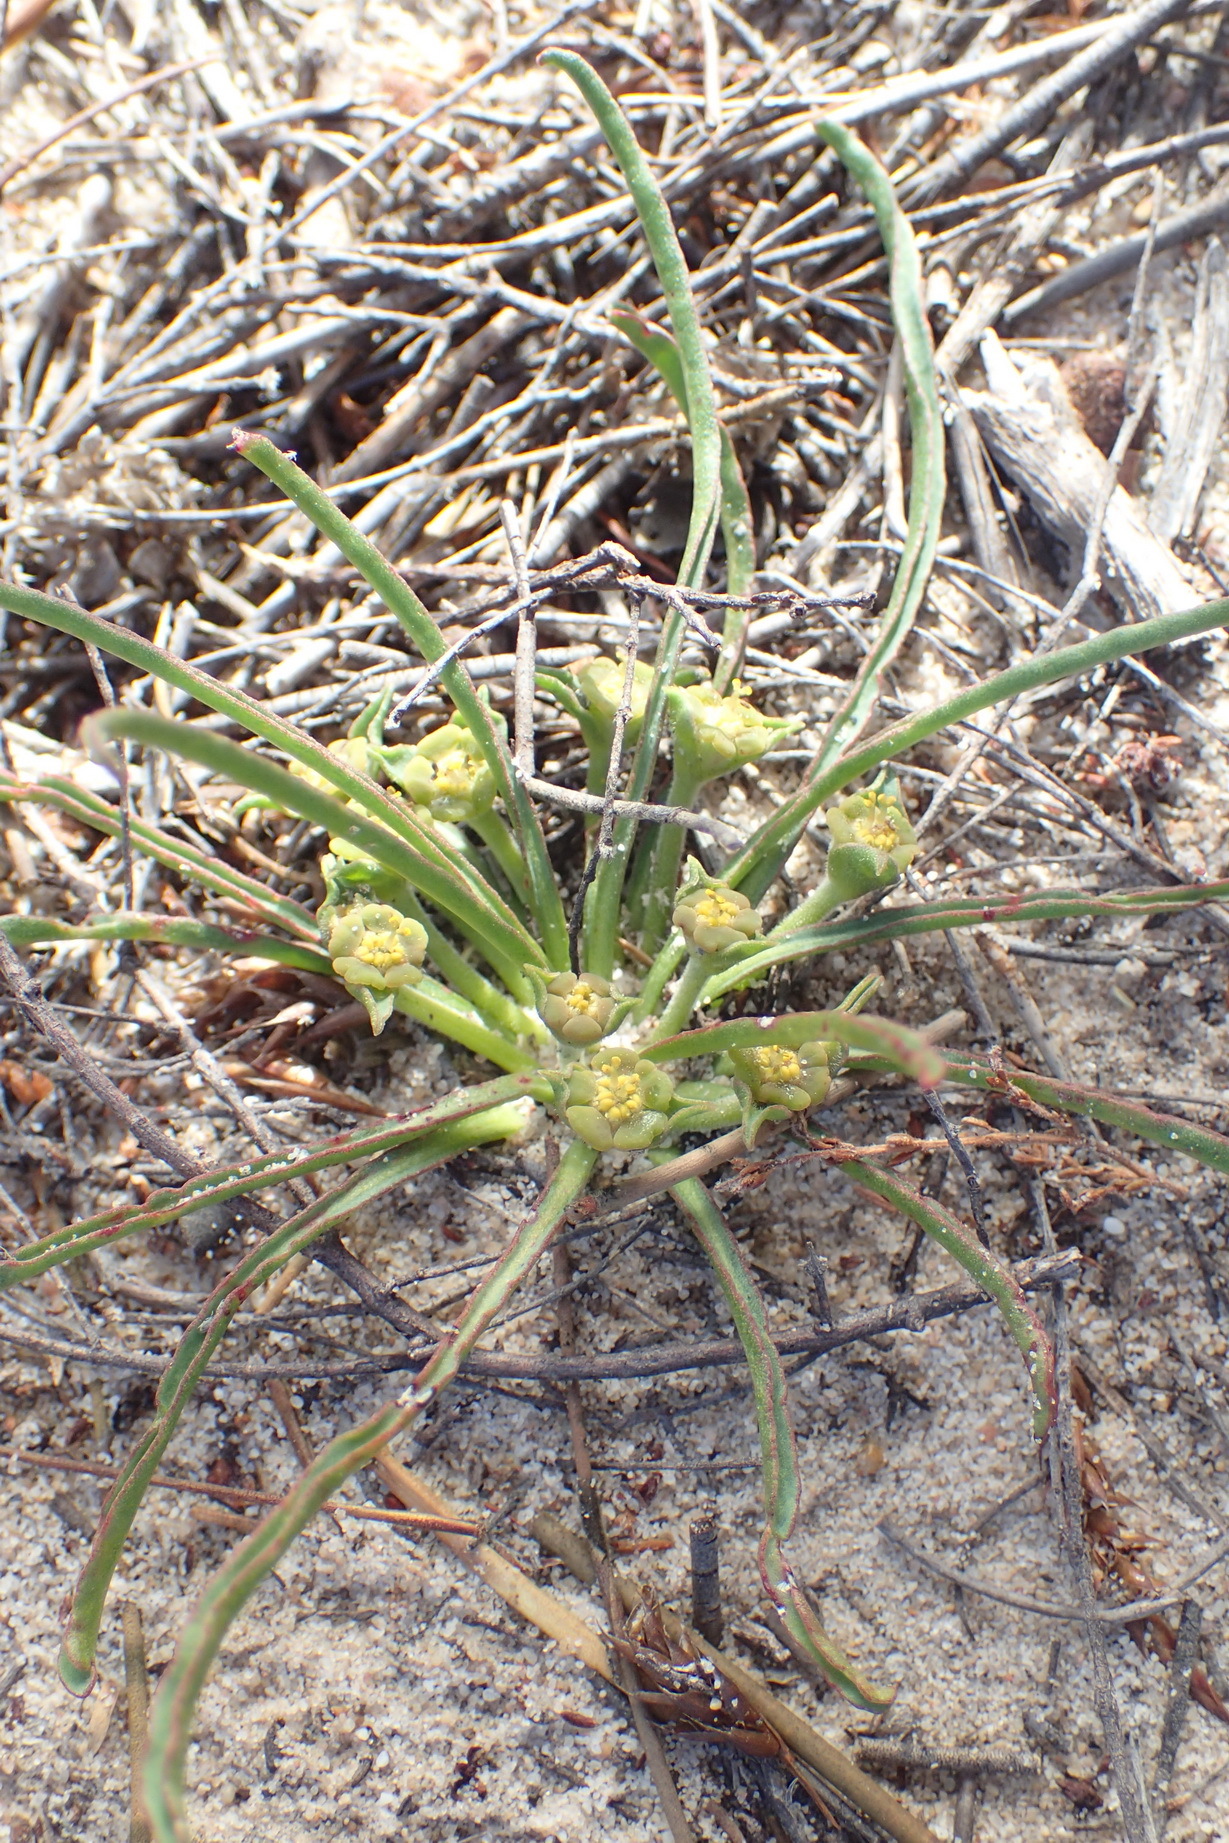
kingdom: Plantae
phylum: Tracheophyta
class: Magnoliopsida
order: Malpighiales
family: Euphorbiaceae
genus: Euphorbia
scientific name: Euphorbia silenifolia
